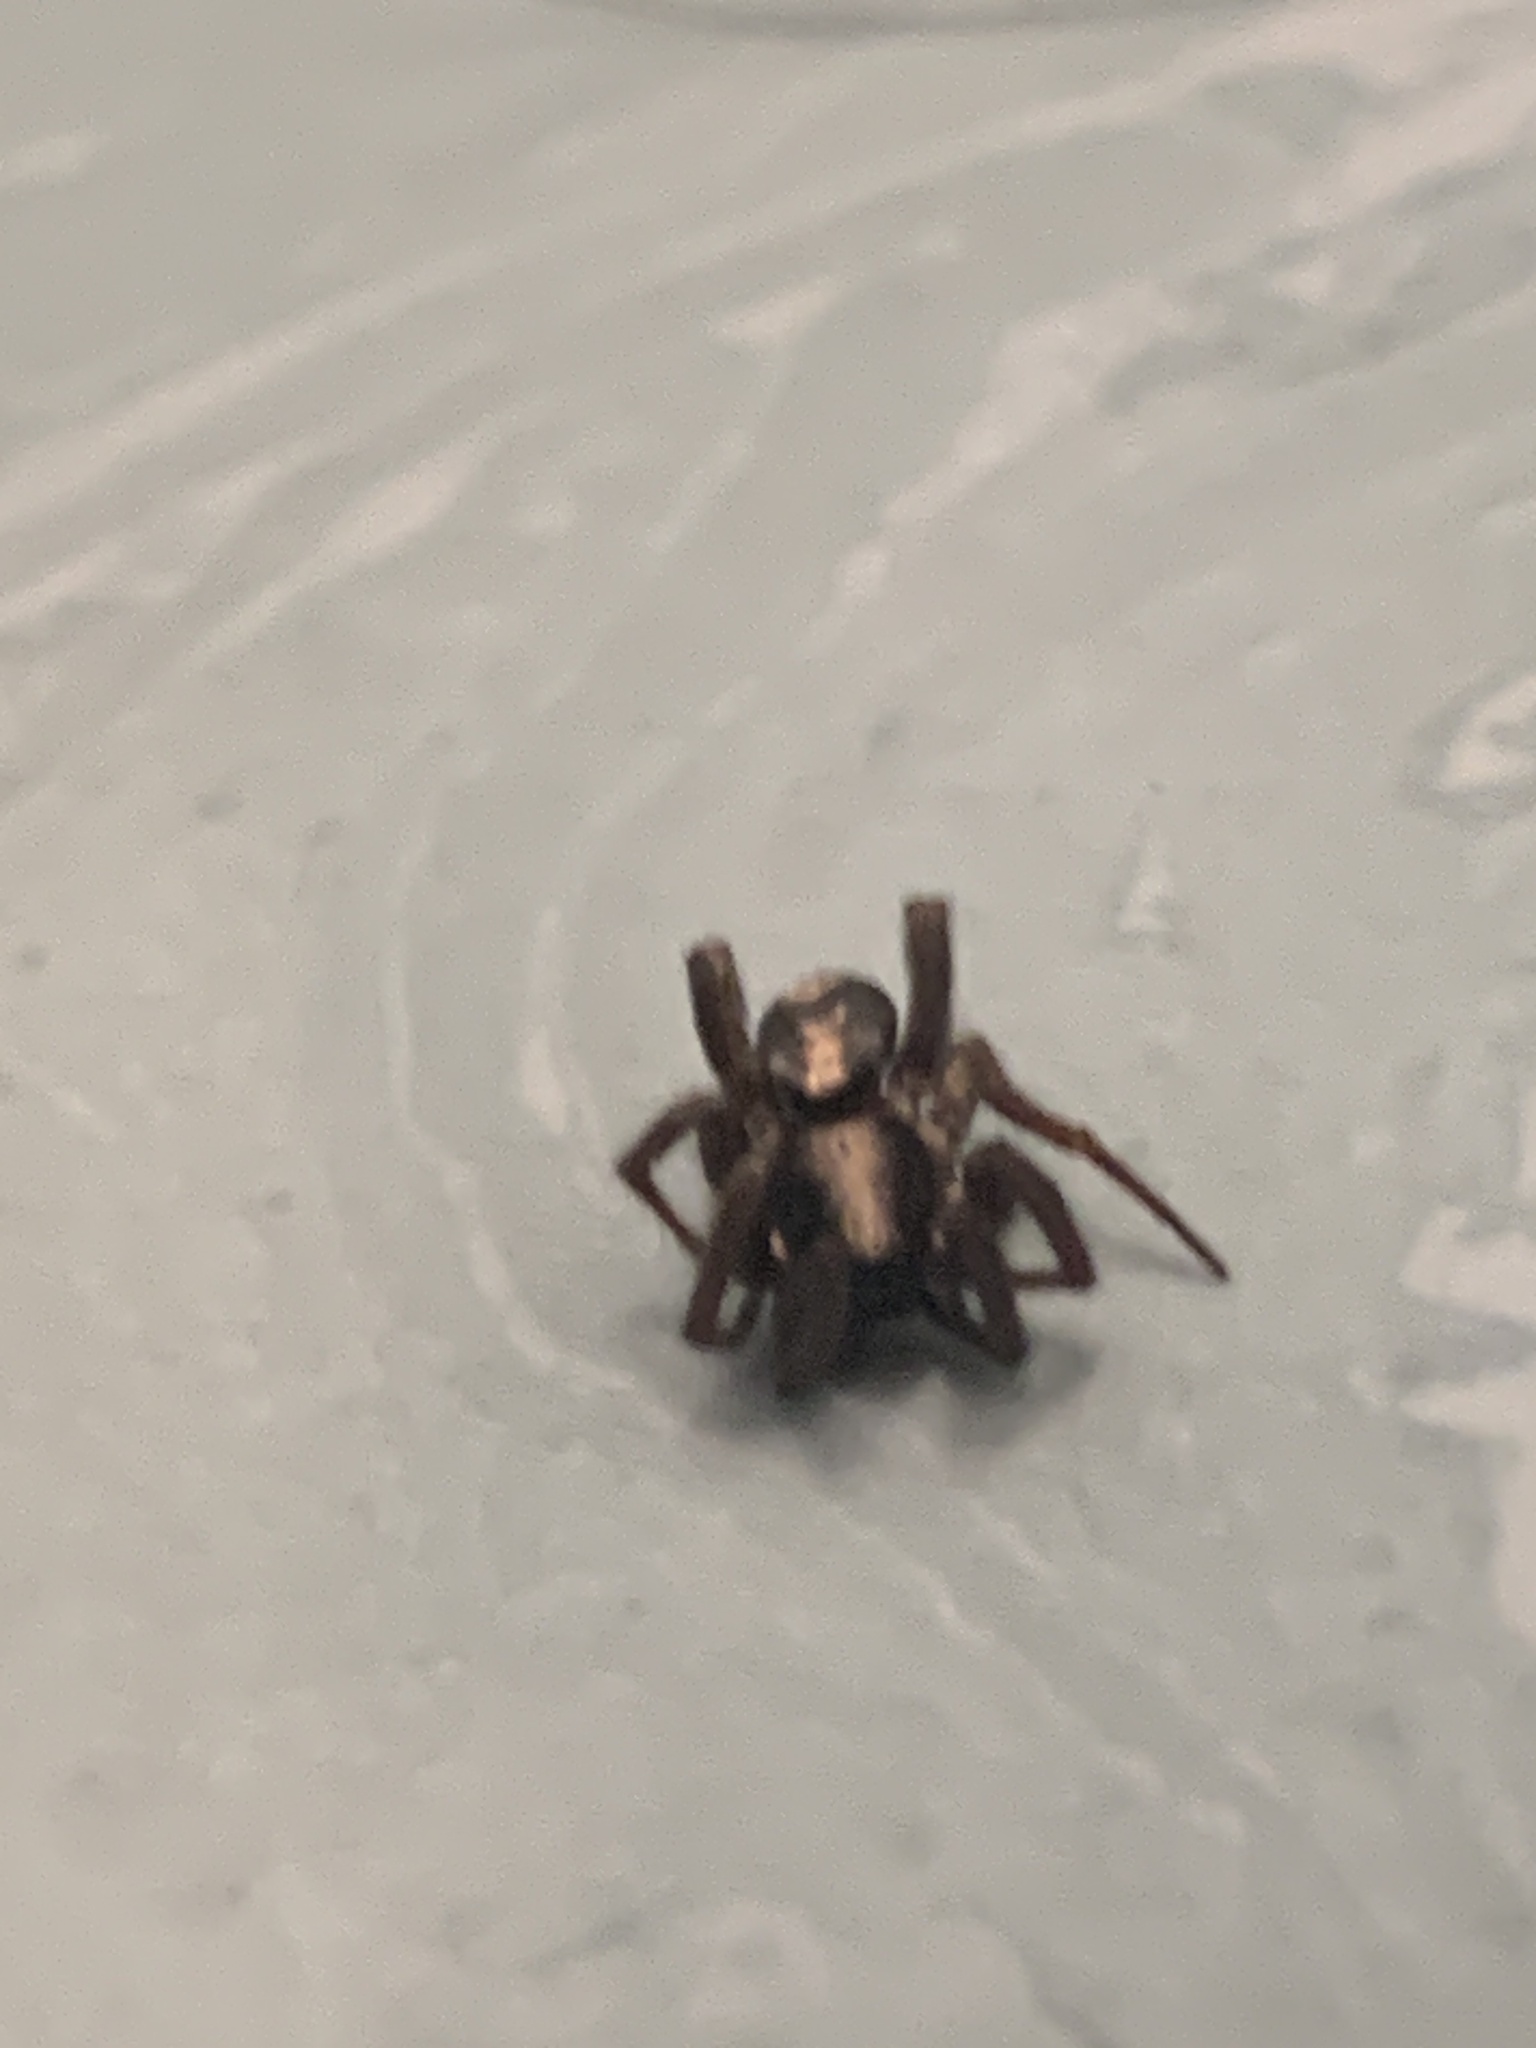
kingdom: Animalia
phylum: Arthropoda
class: Arachnida
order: Araneae
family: Gnaphosidae
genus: Herpyllus
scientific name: Herpyllus ecclesiasticus
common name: Eastern parson spider
